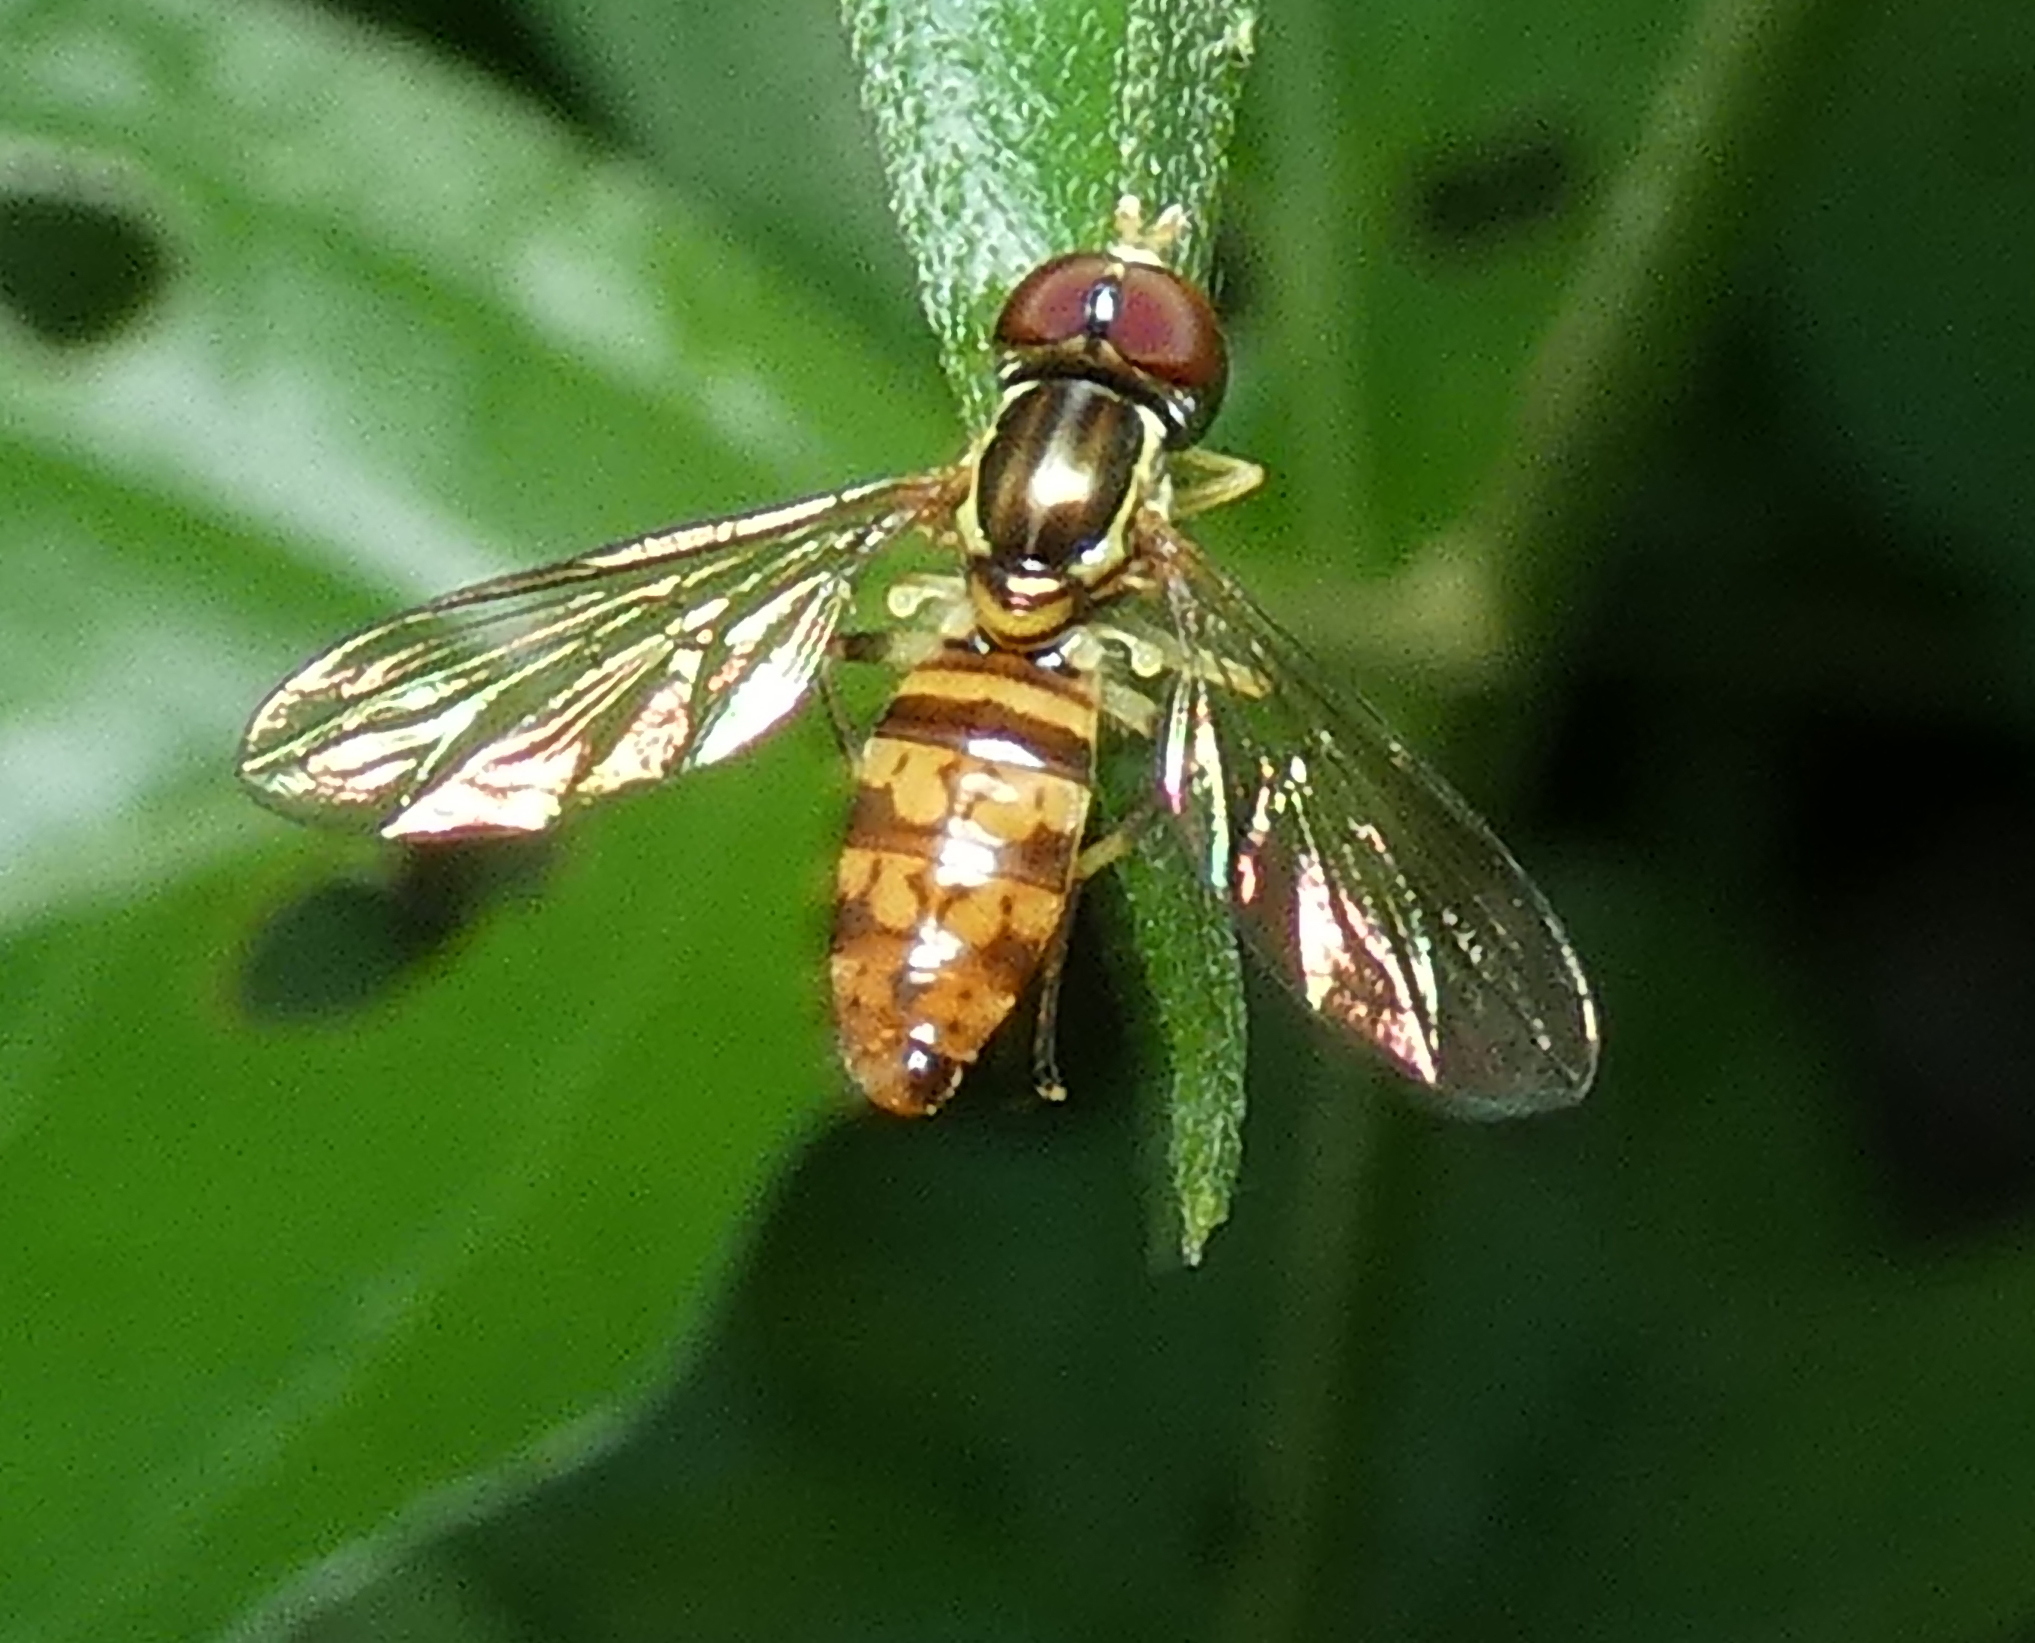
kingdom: Animalia
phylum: Arthropoda
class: Insecta
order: Diptera
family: Syrphidae
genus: Toxomerus
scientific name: Toxomerus pictus
